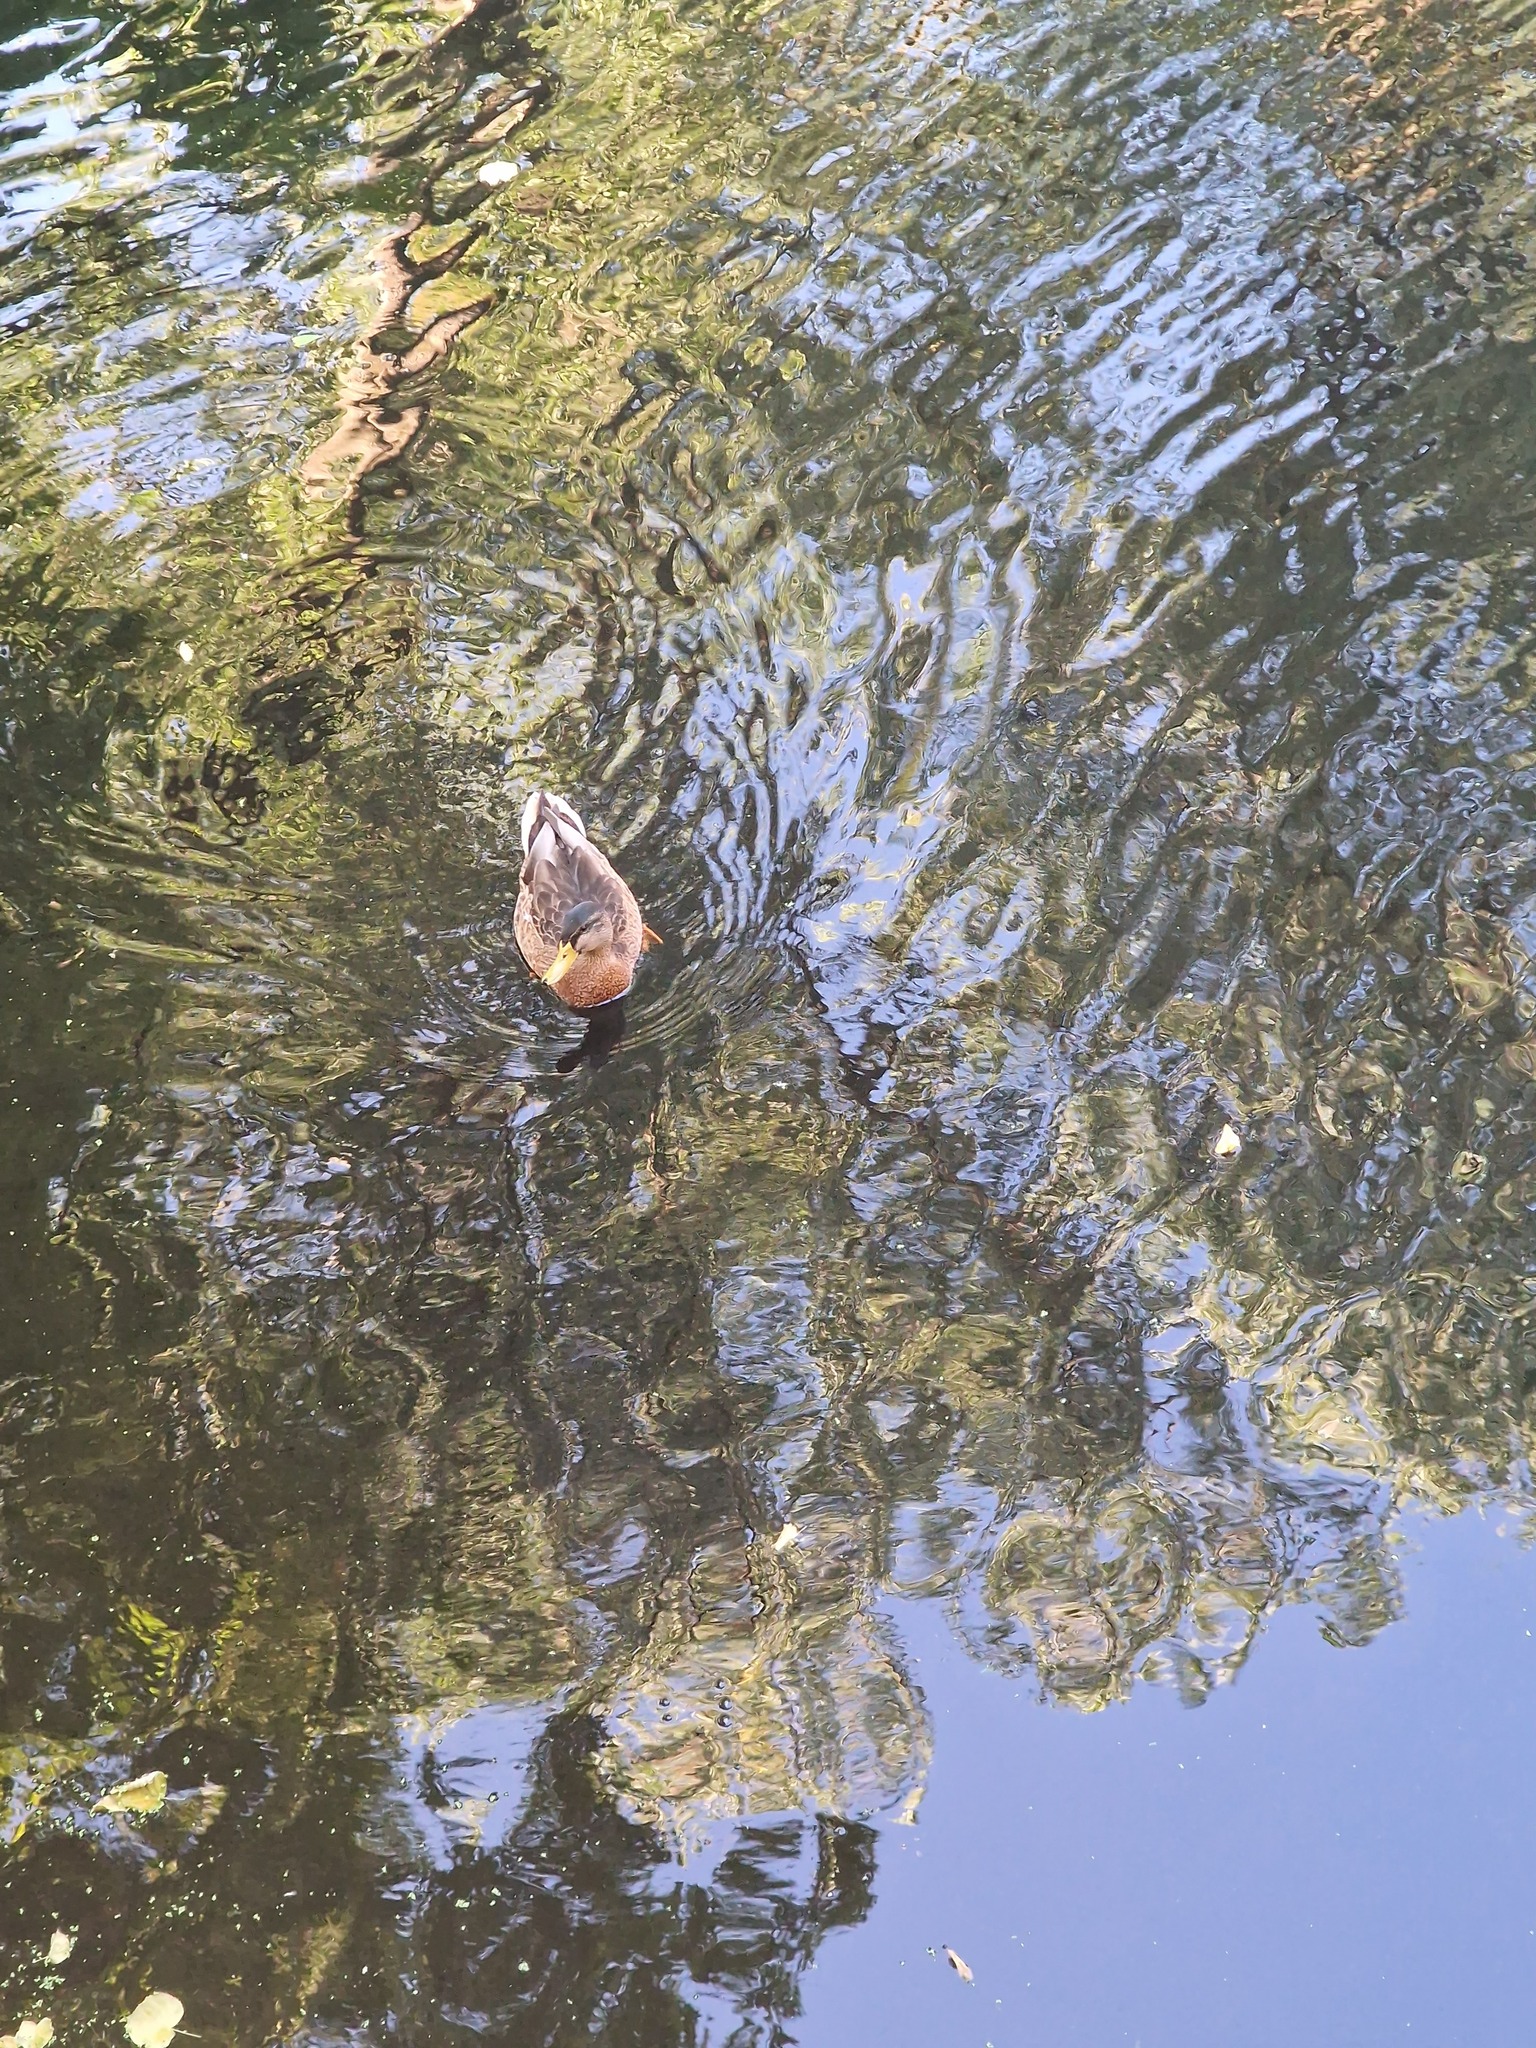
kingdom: Animalia
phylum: Chordata
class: Aves
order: Anseriformes
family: Anatidae
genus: Anas
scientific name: Anas platyrhynchos
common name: Mallard
